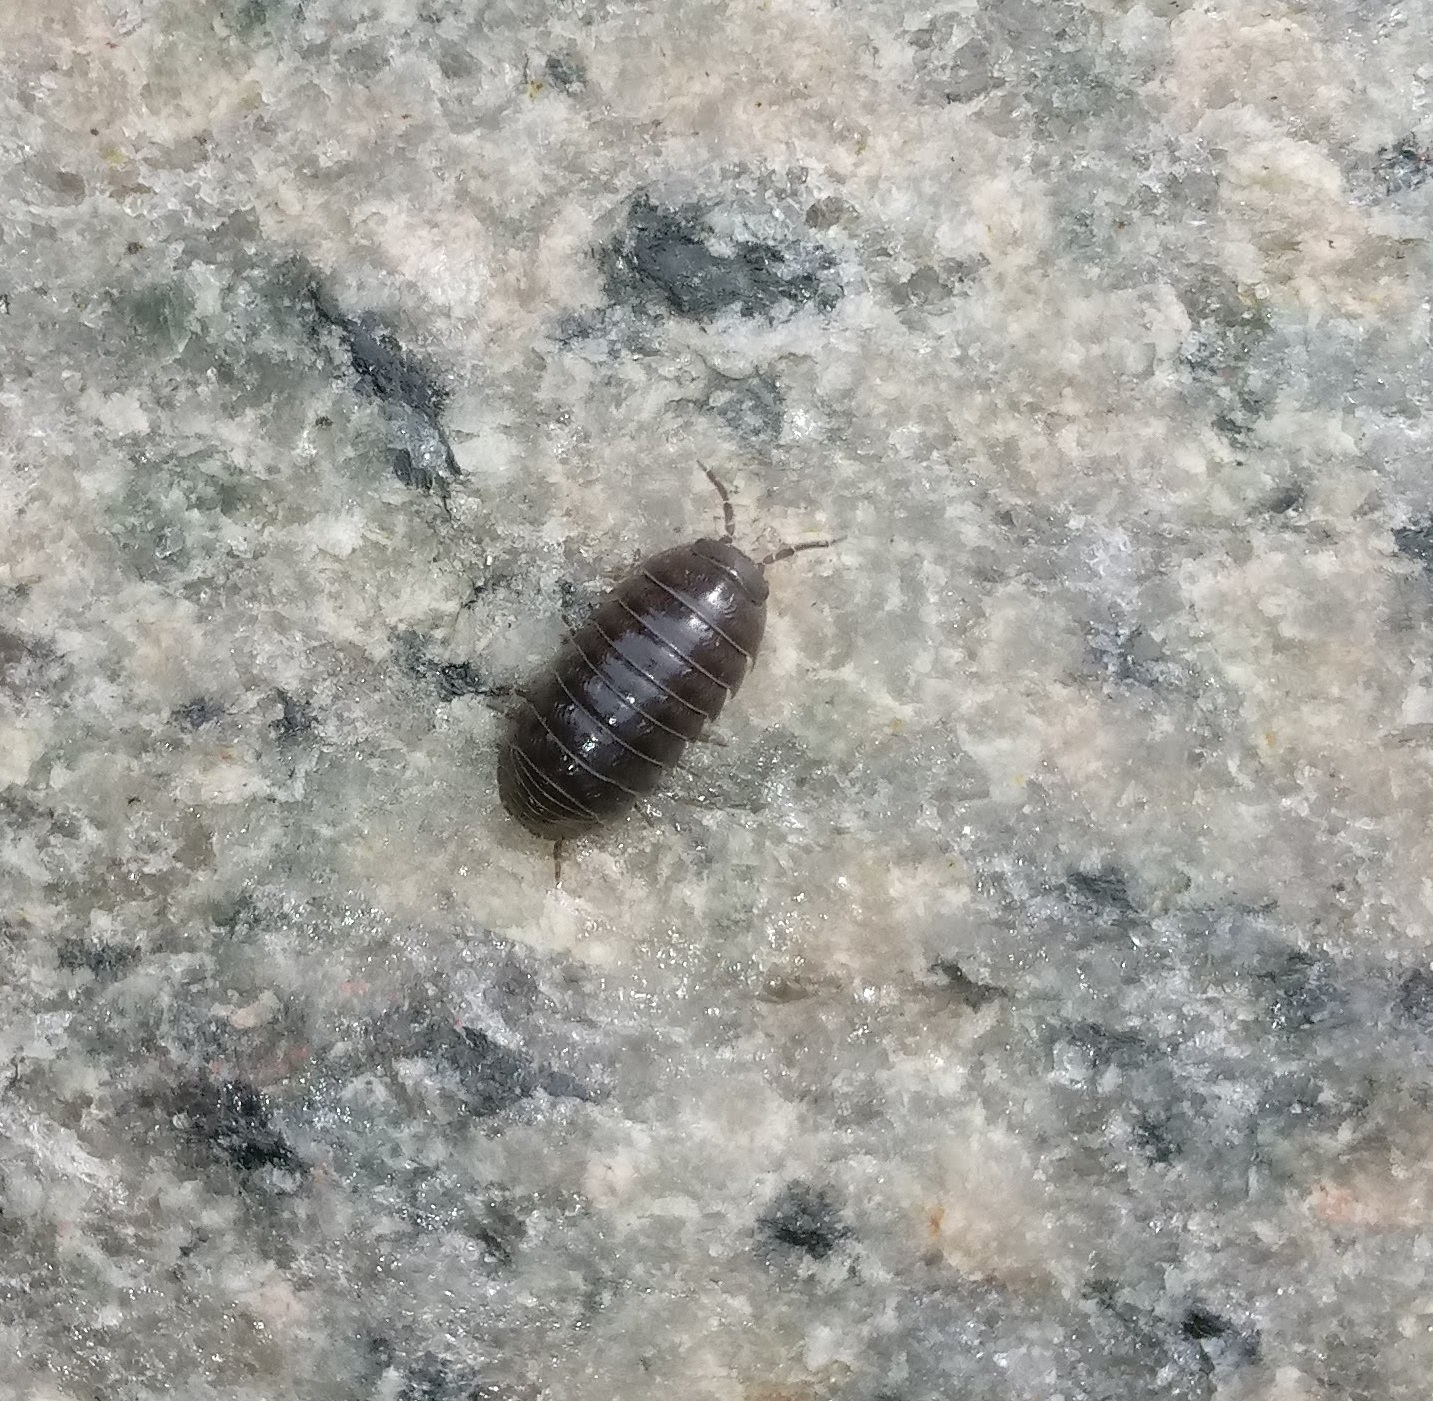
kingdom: Animalia
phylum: Arthropoda
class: Malacostraca
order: Isopoda
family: Armadillidiidae
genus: Armadillidium
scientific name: Armadillidium vulgare
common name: Common pill woodlouse
